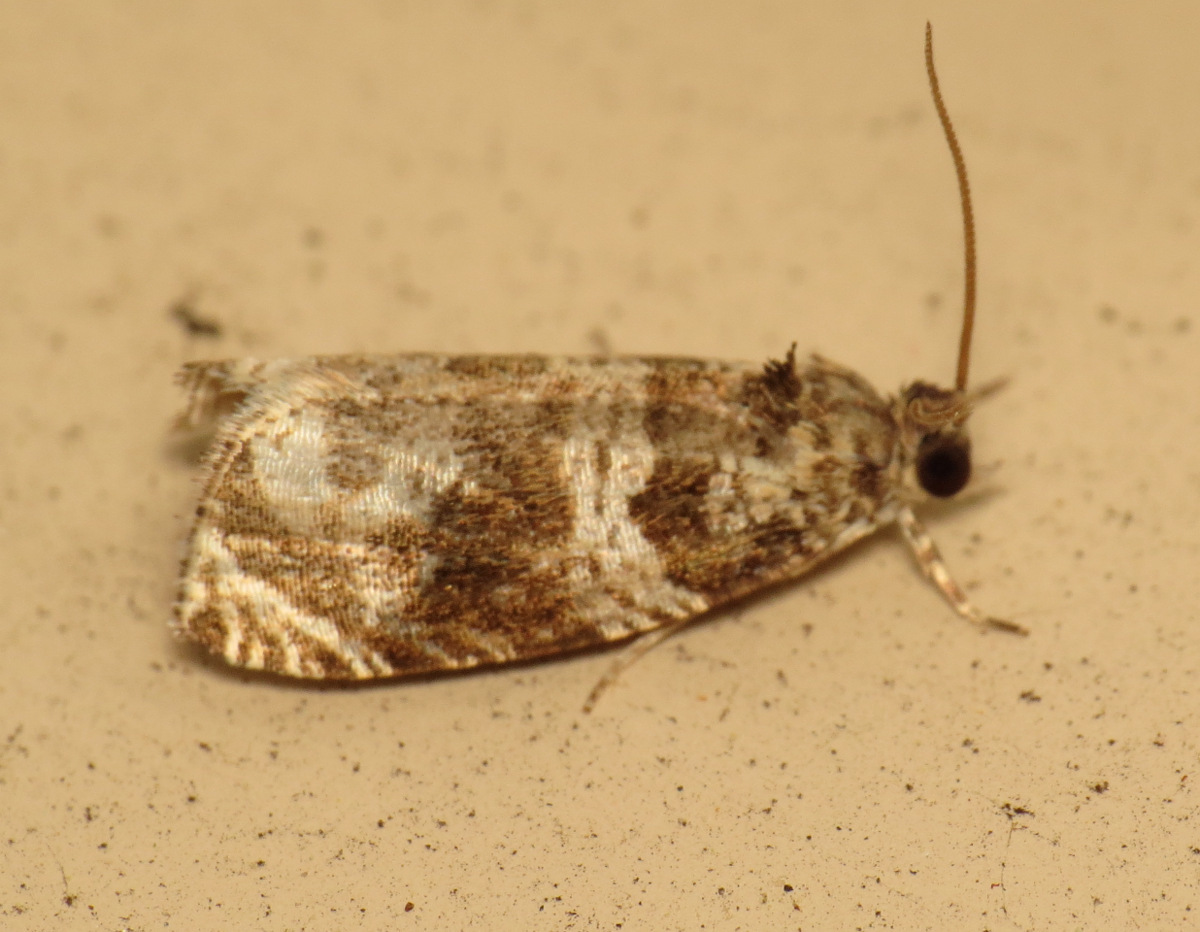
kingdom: Animalia
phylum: Arthropoda
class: Insecta
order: Lepidoptera
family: Tortricidae
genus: Olethreutes
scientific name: Olethreutes appendiceum
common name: Serviceberry leafroller
